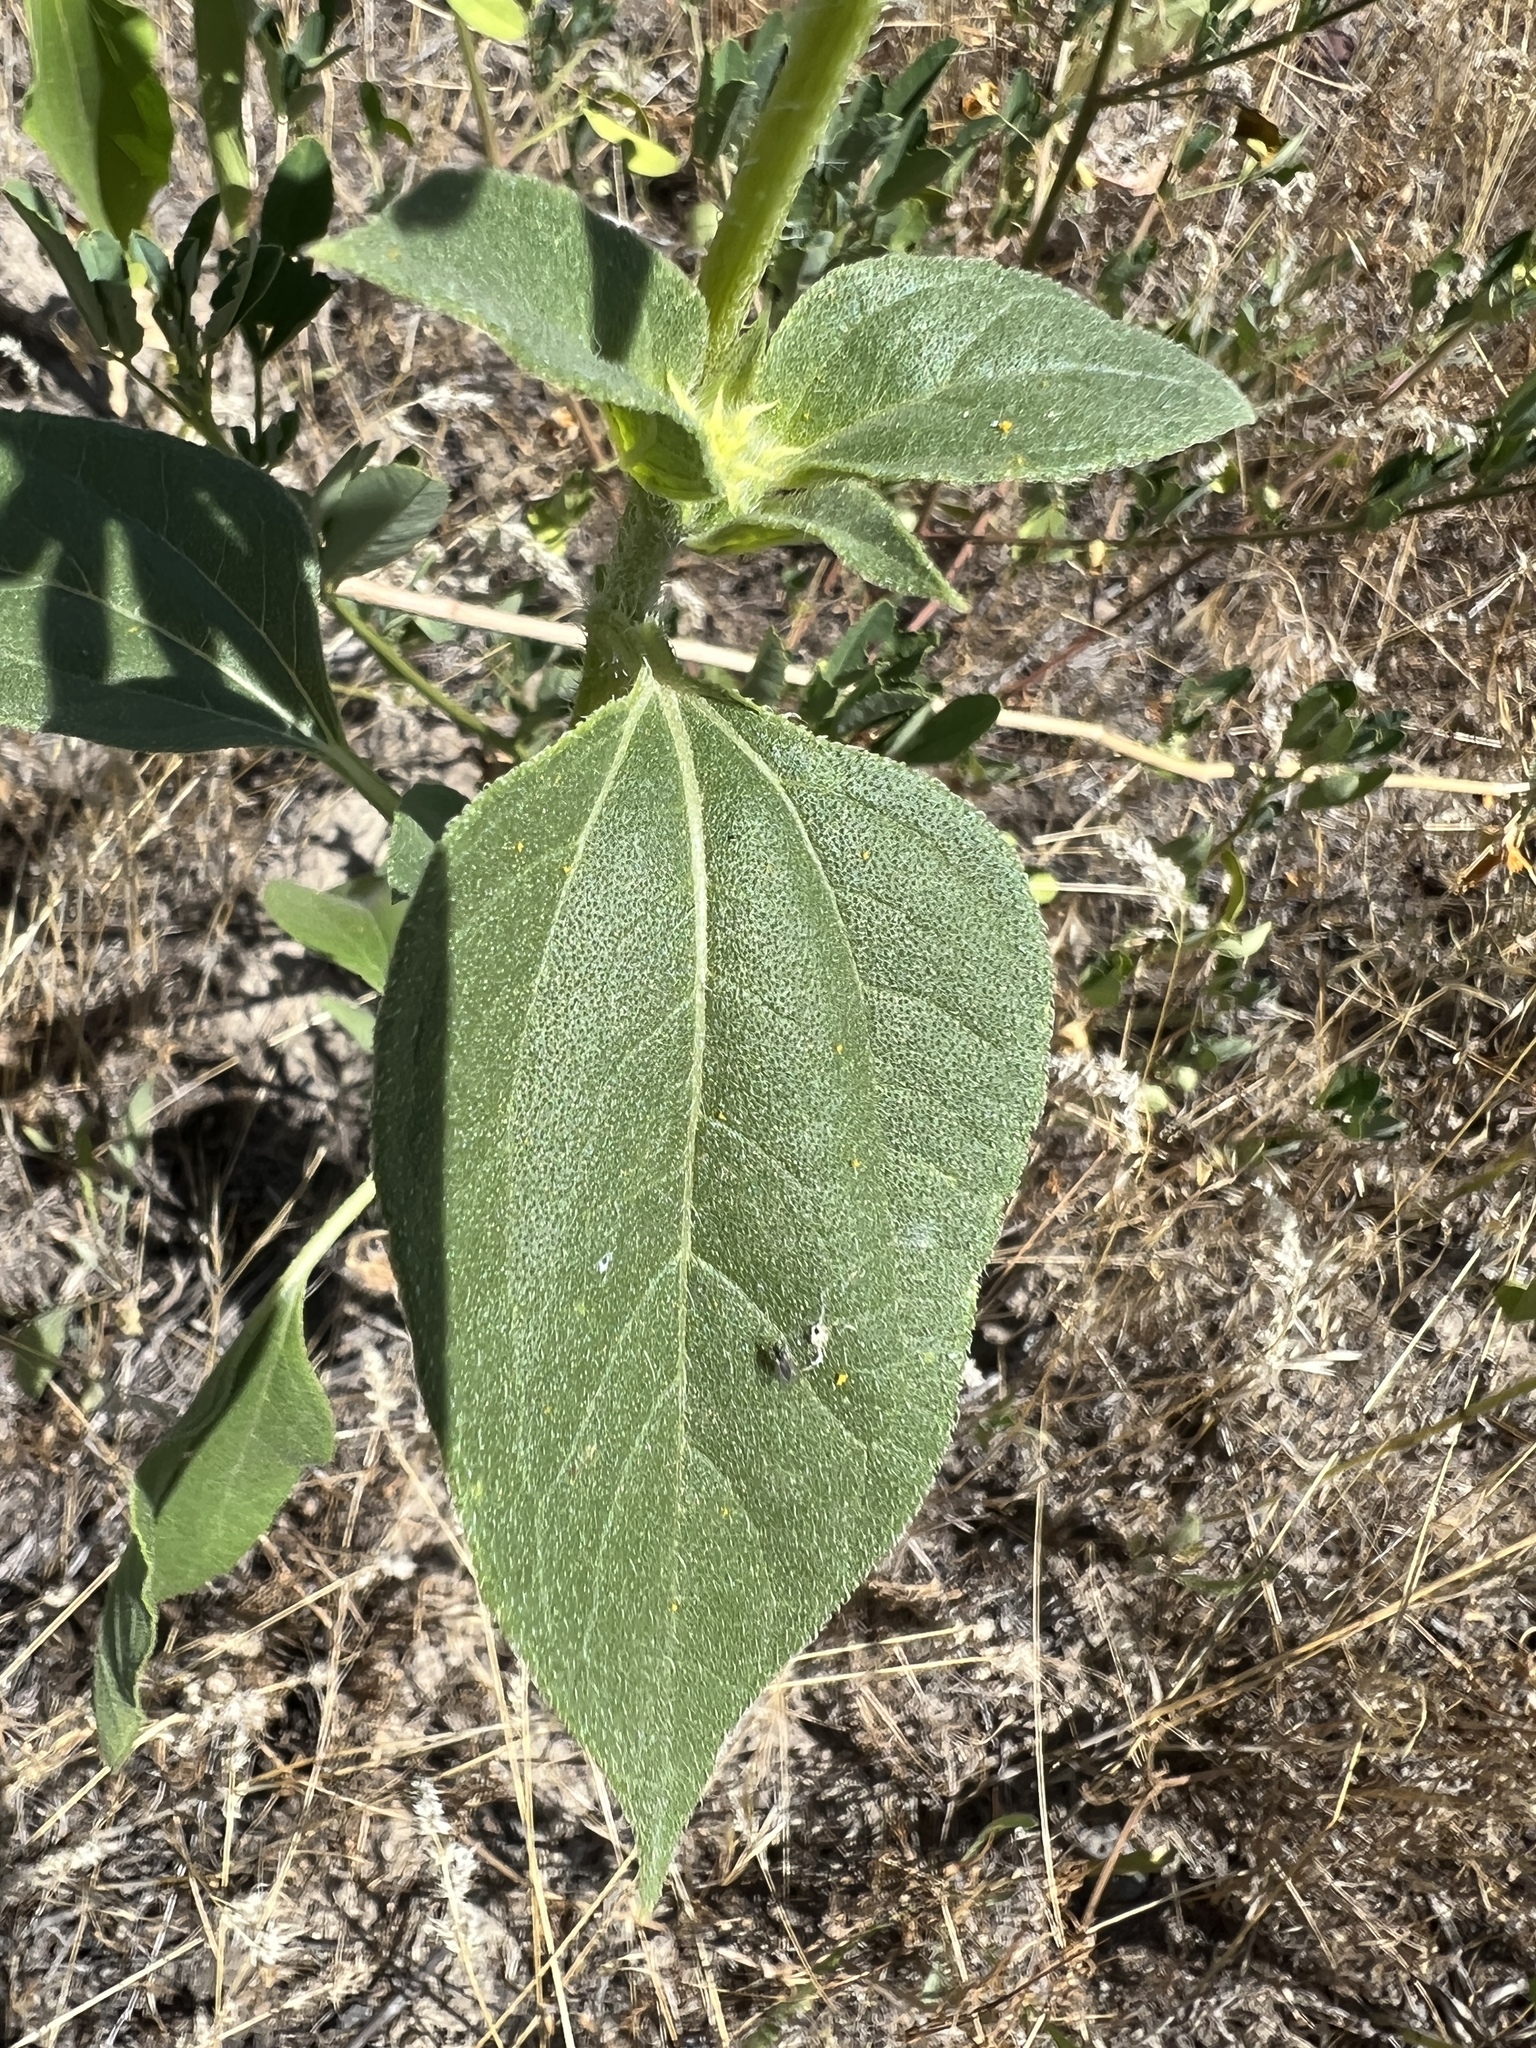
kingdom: Plantae
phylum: Tracheophyta
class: Magnoliopsida
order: Asterales
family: Asteraceae
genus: Helianthus
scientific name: Helianthus annuus
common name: Sunflower
